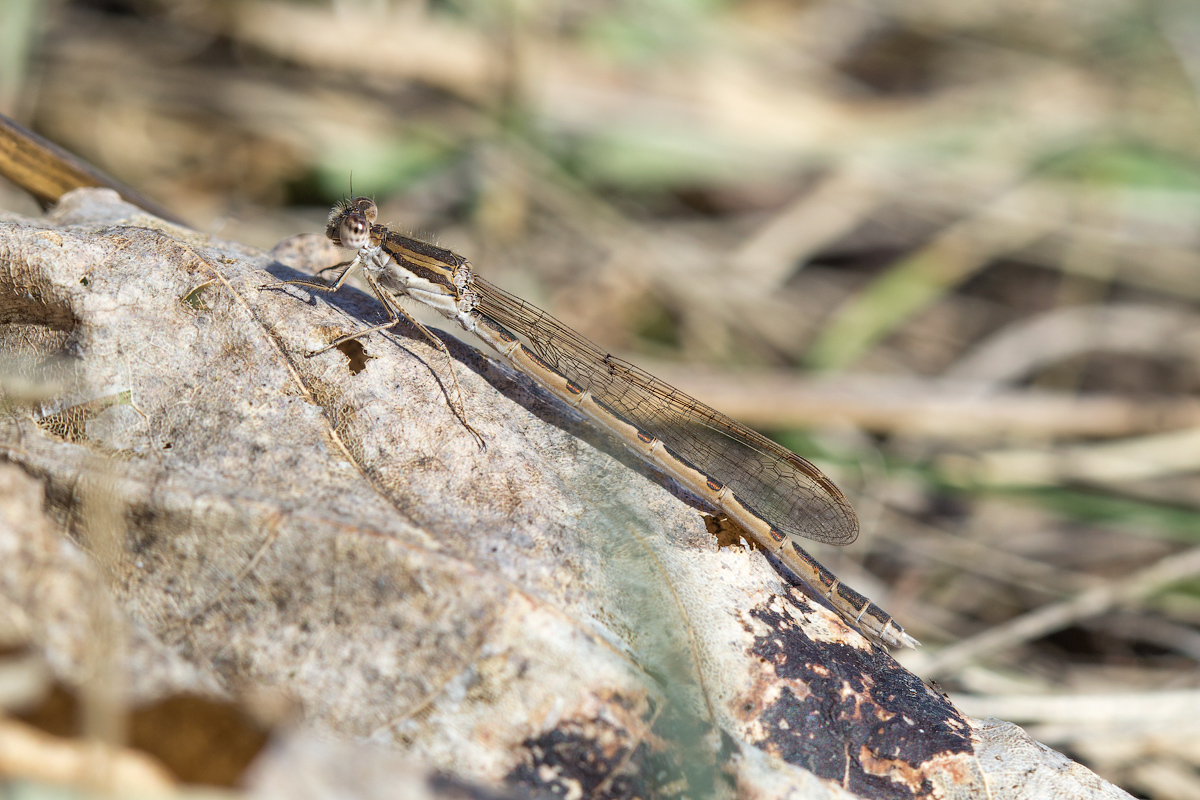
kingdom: Animalia
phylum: Arthropoda
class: Insecta
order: Odonata
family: Lestidae
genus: Sympecma
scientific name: Sympecma fusca
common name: Common winter damsel
